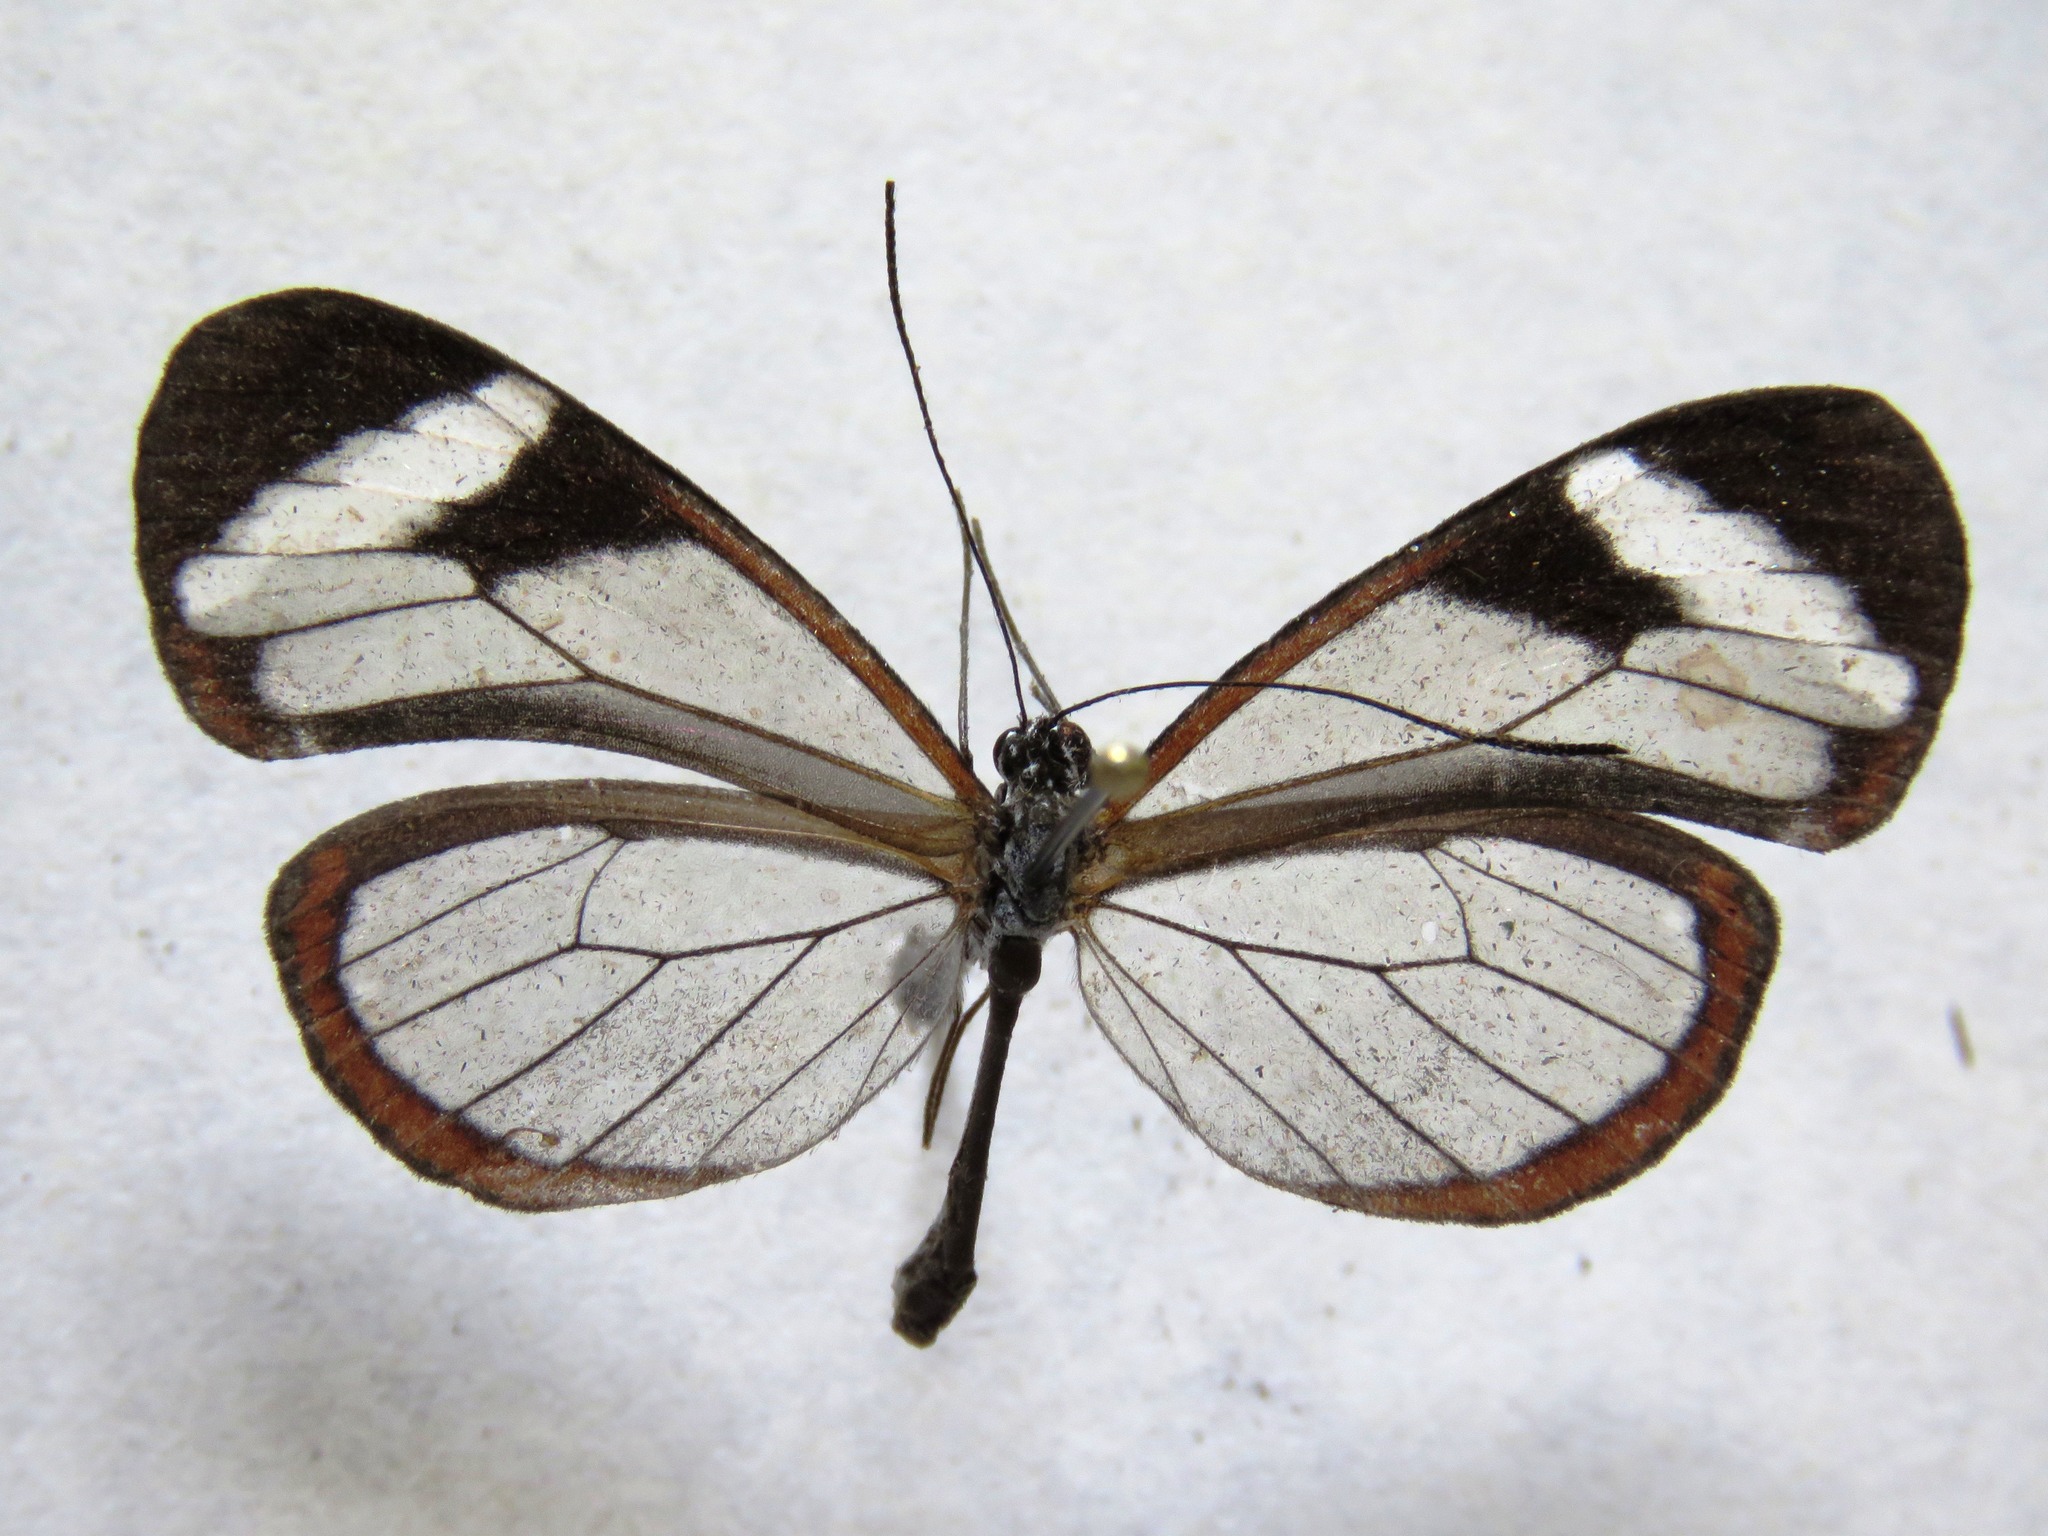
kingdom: Animalia
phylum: Arthropoda
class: Insecta
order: Lepidoptera
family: Nymphalidae
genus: Oleria
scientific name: Oleria paula
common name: Paula's clearwing
